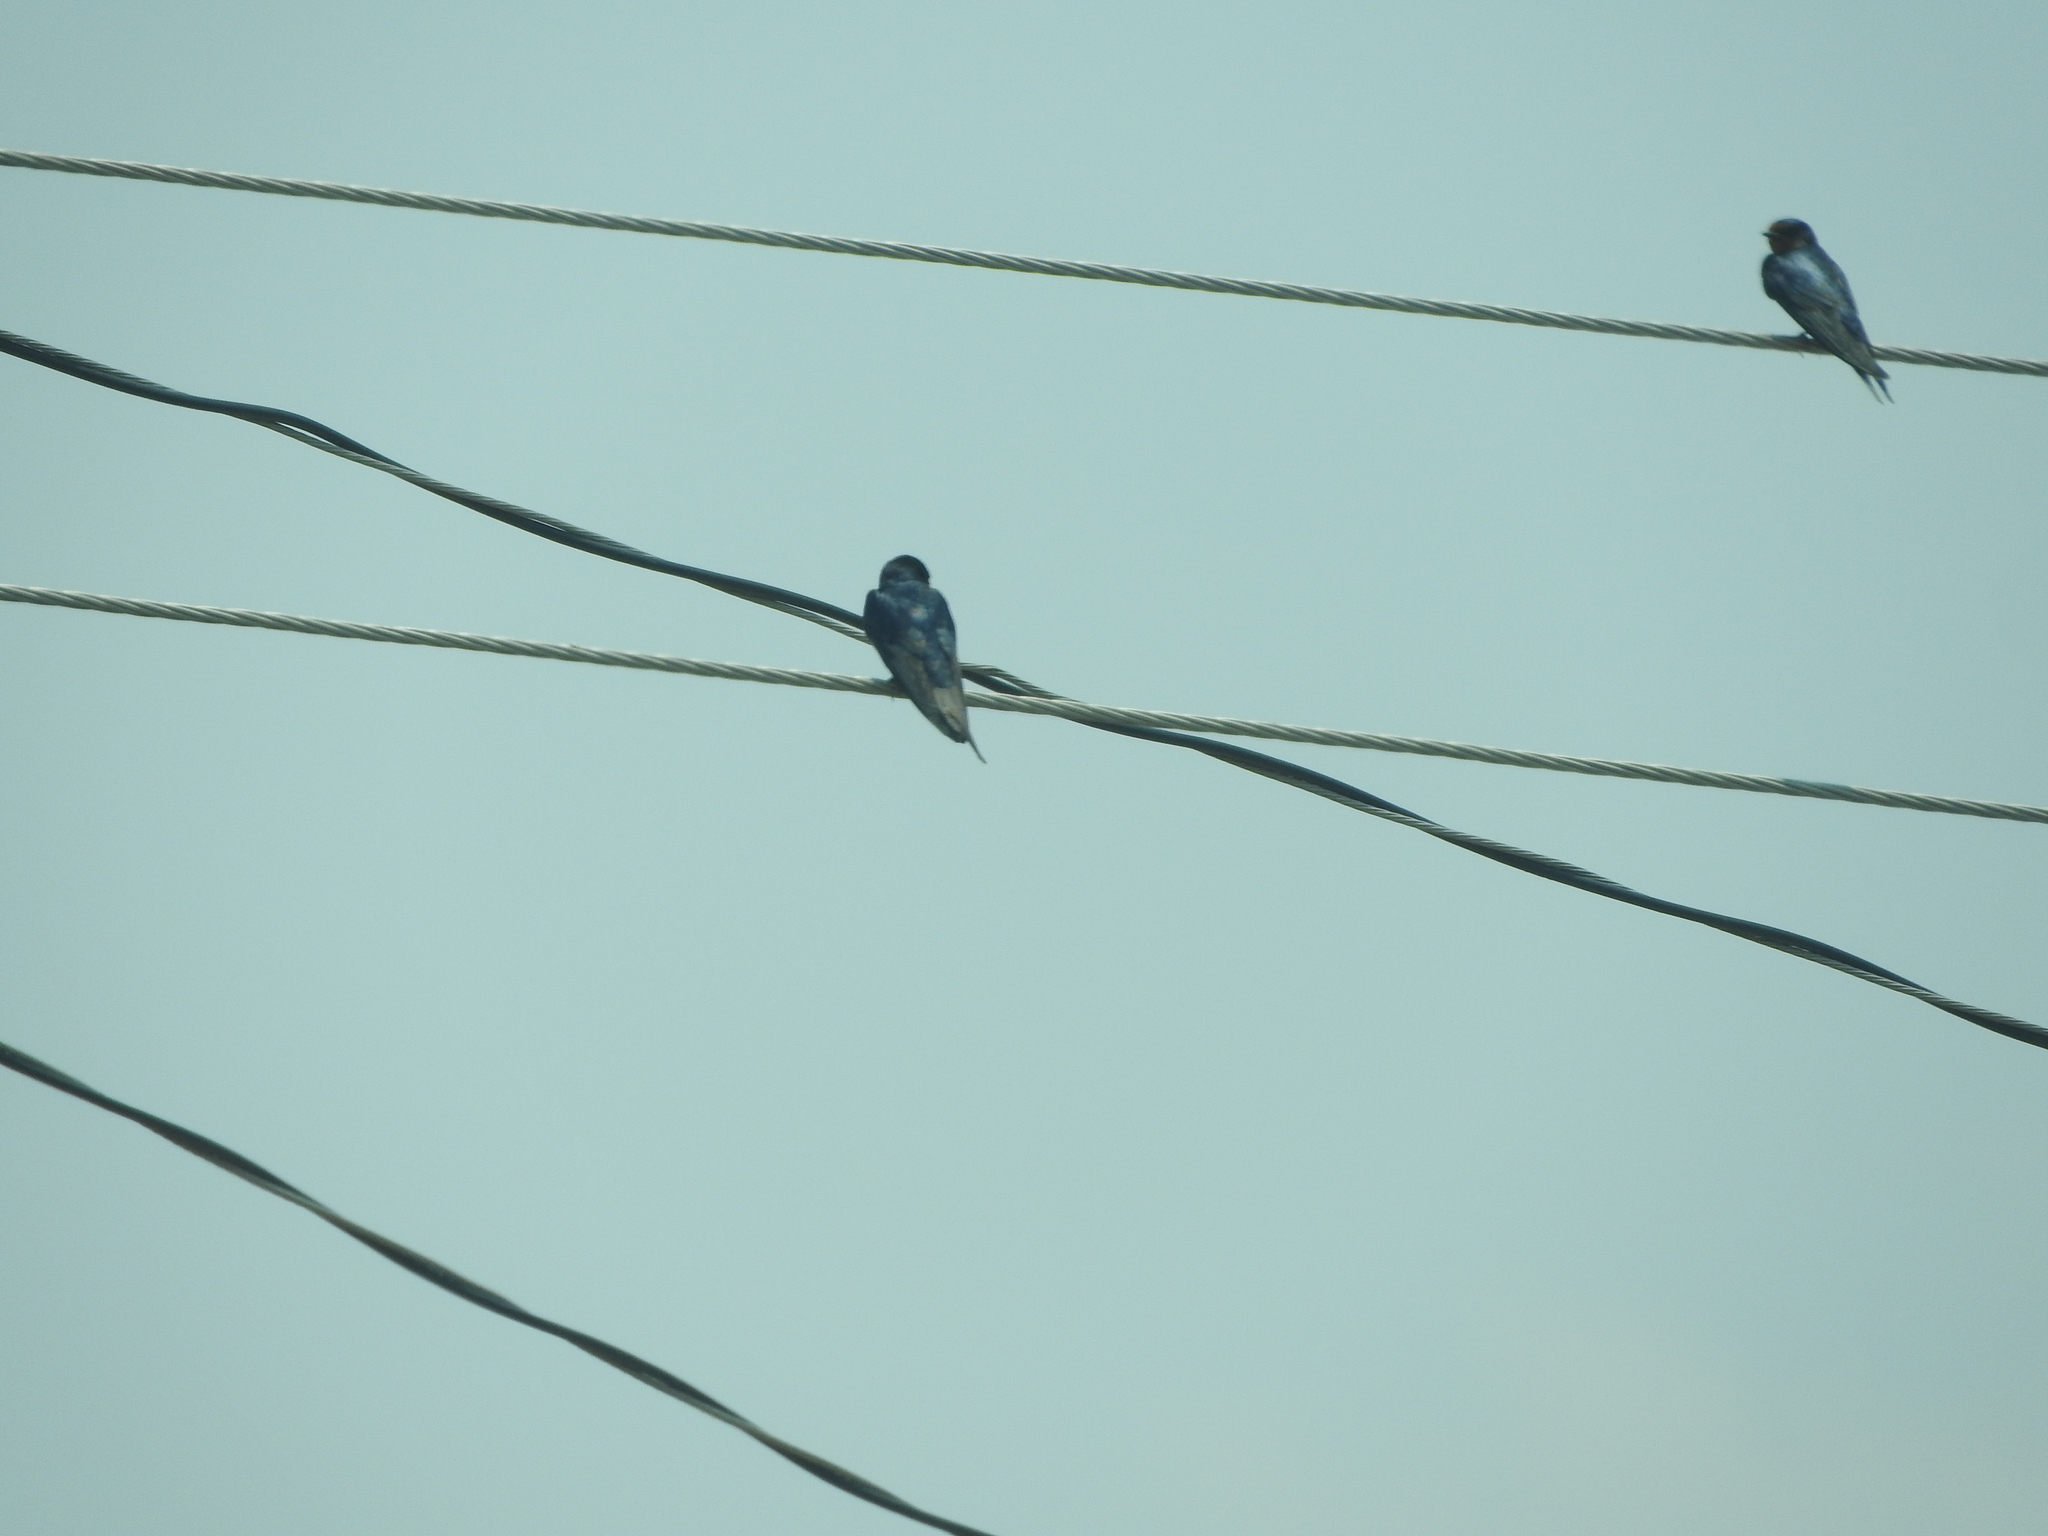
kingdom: Animalia
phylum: Chordata
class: Aves
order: Passeriformes
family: Hirundinidae
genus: Hirundo
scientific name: Hirundo rustica
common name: Barn swallow
